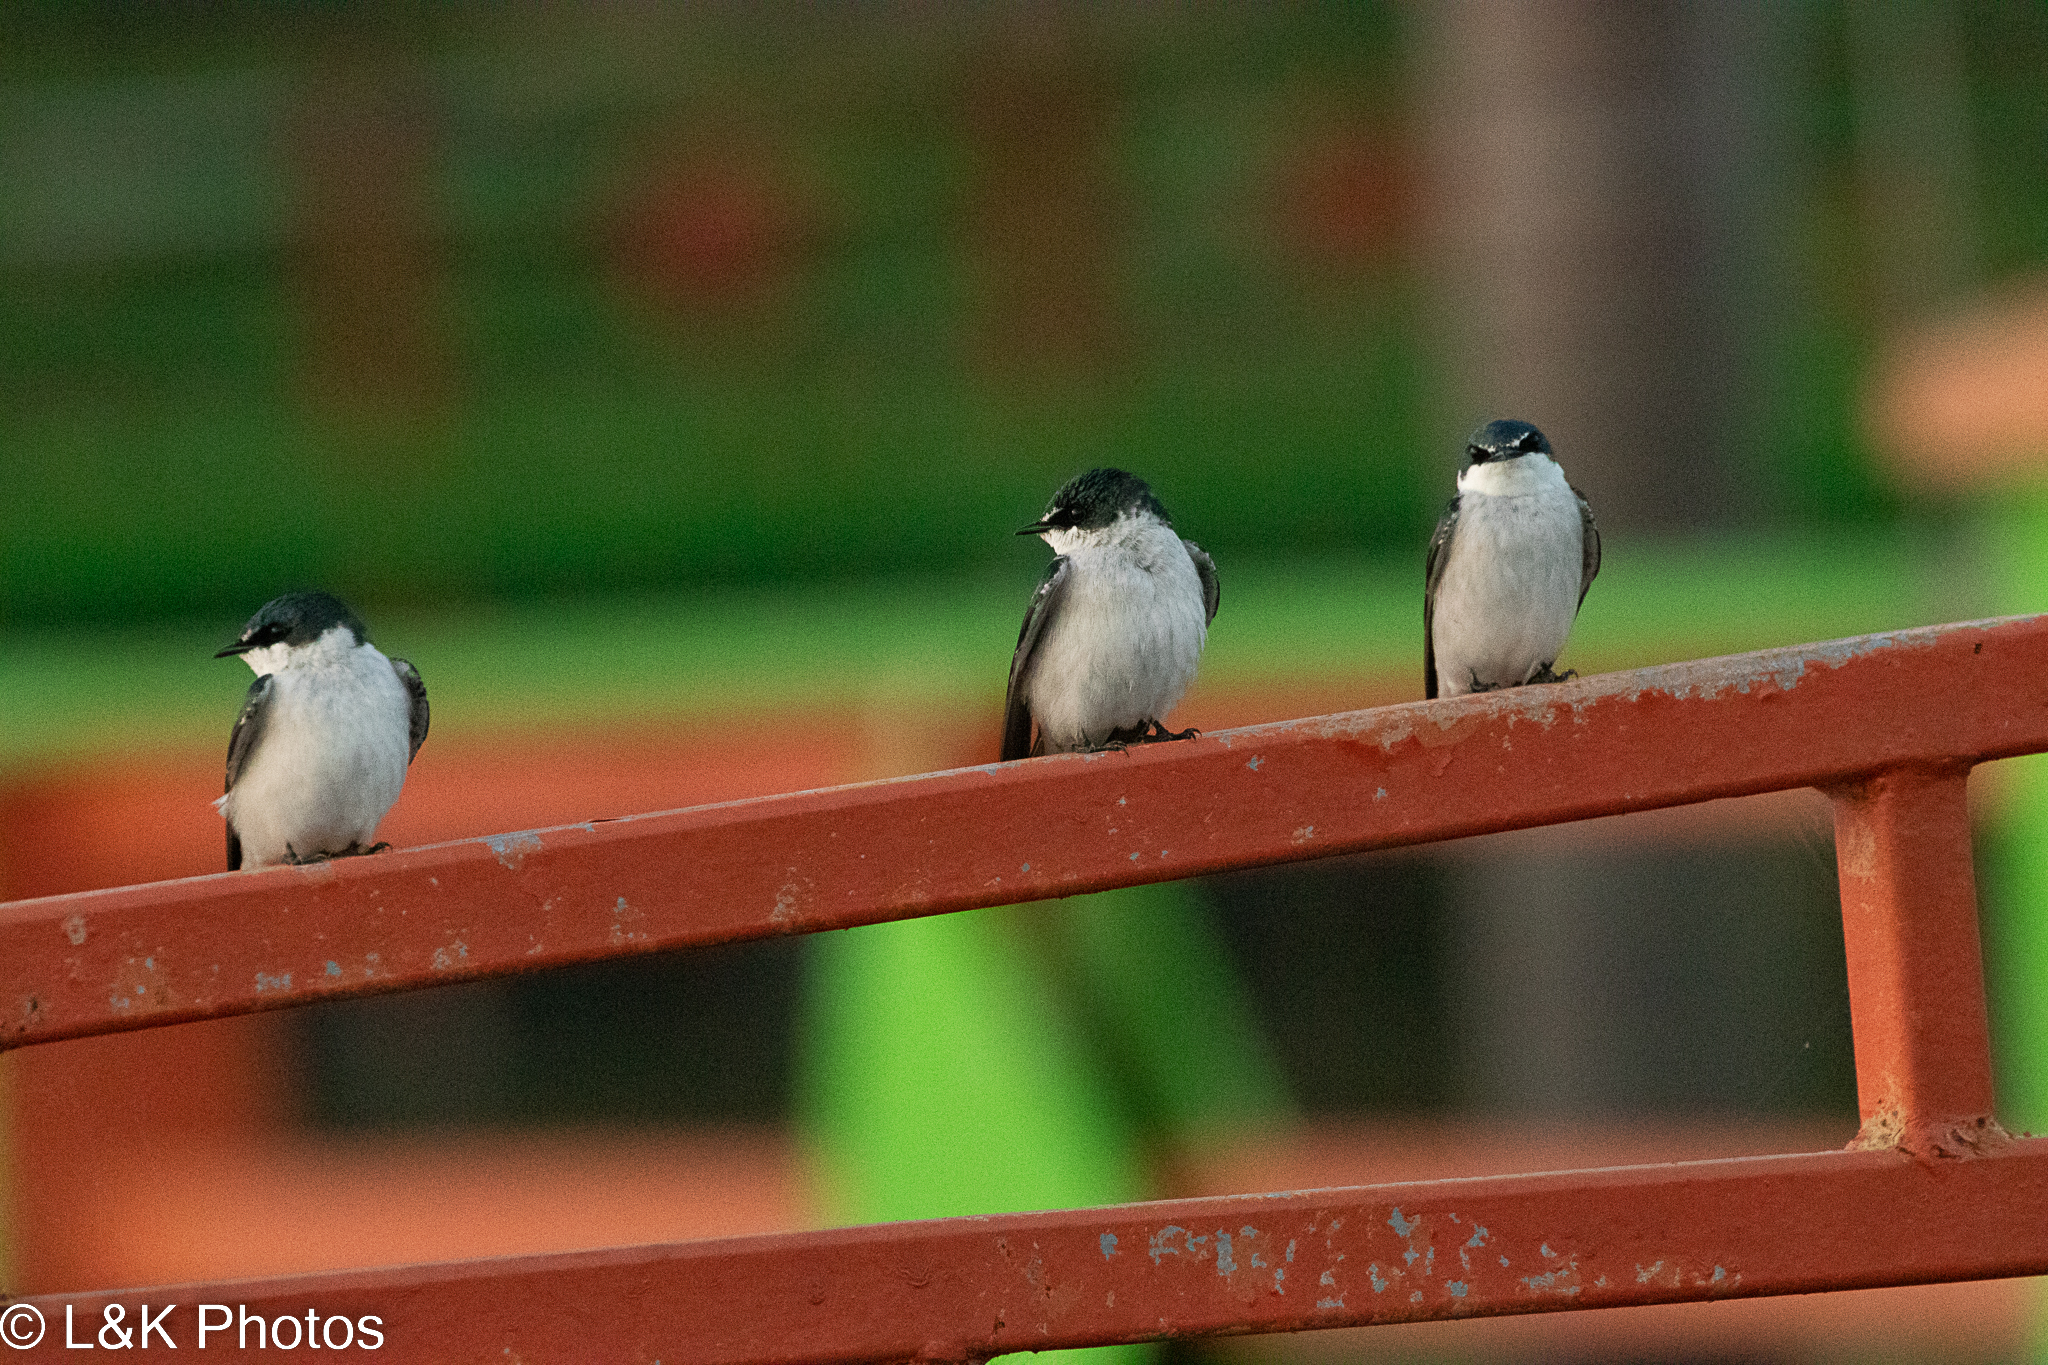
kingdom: Animalia
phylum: Chordata
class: Aves
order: Passeriformes
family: Hirundinidae
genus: Tachycineta
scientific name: Tachycineta albilinea
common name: Mangrove swallow
